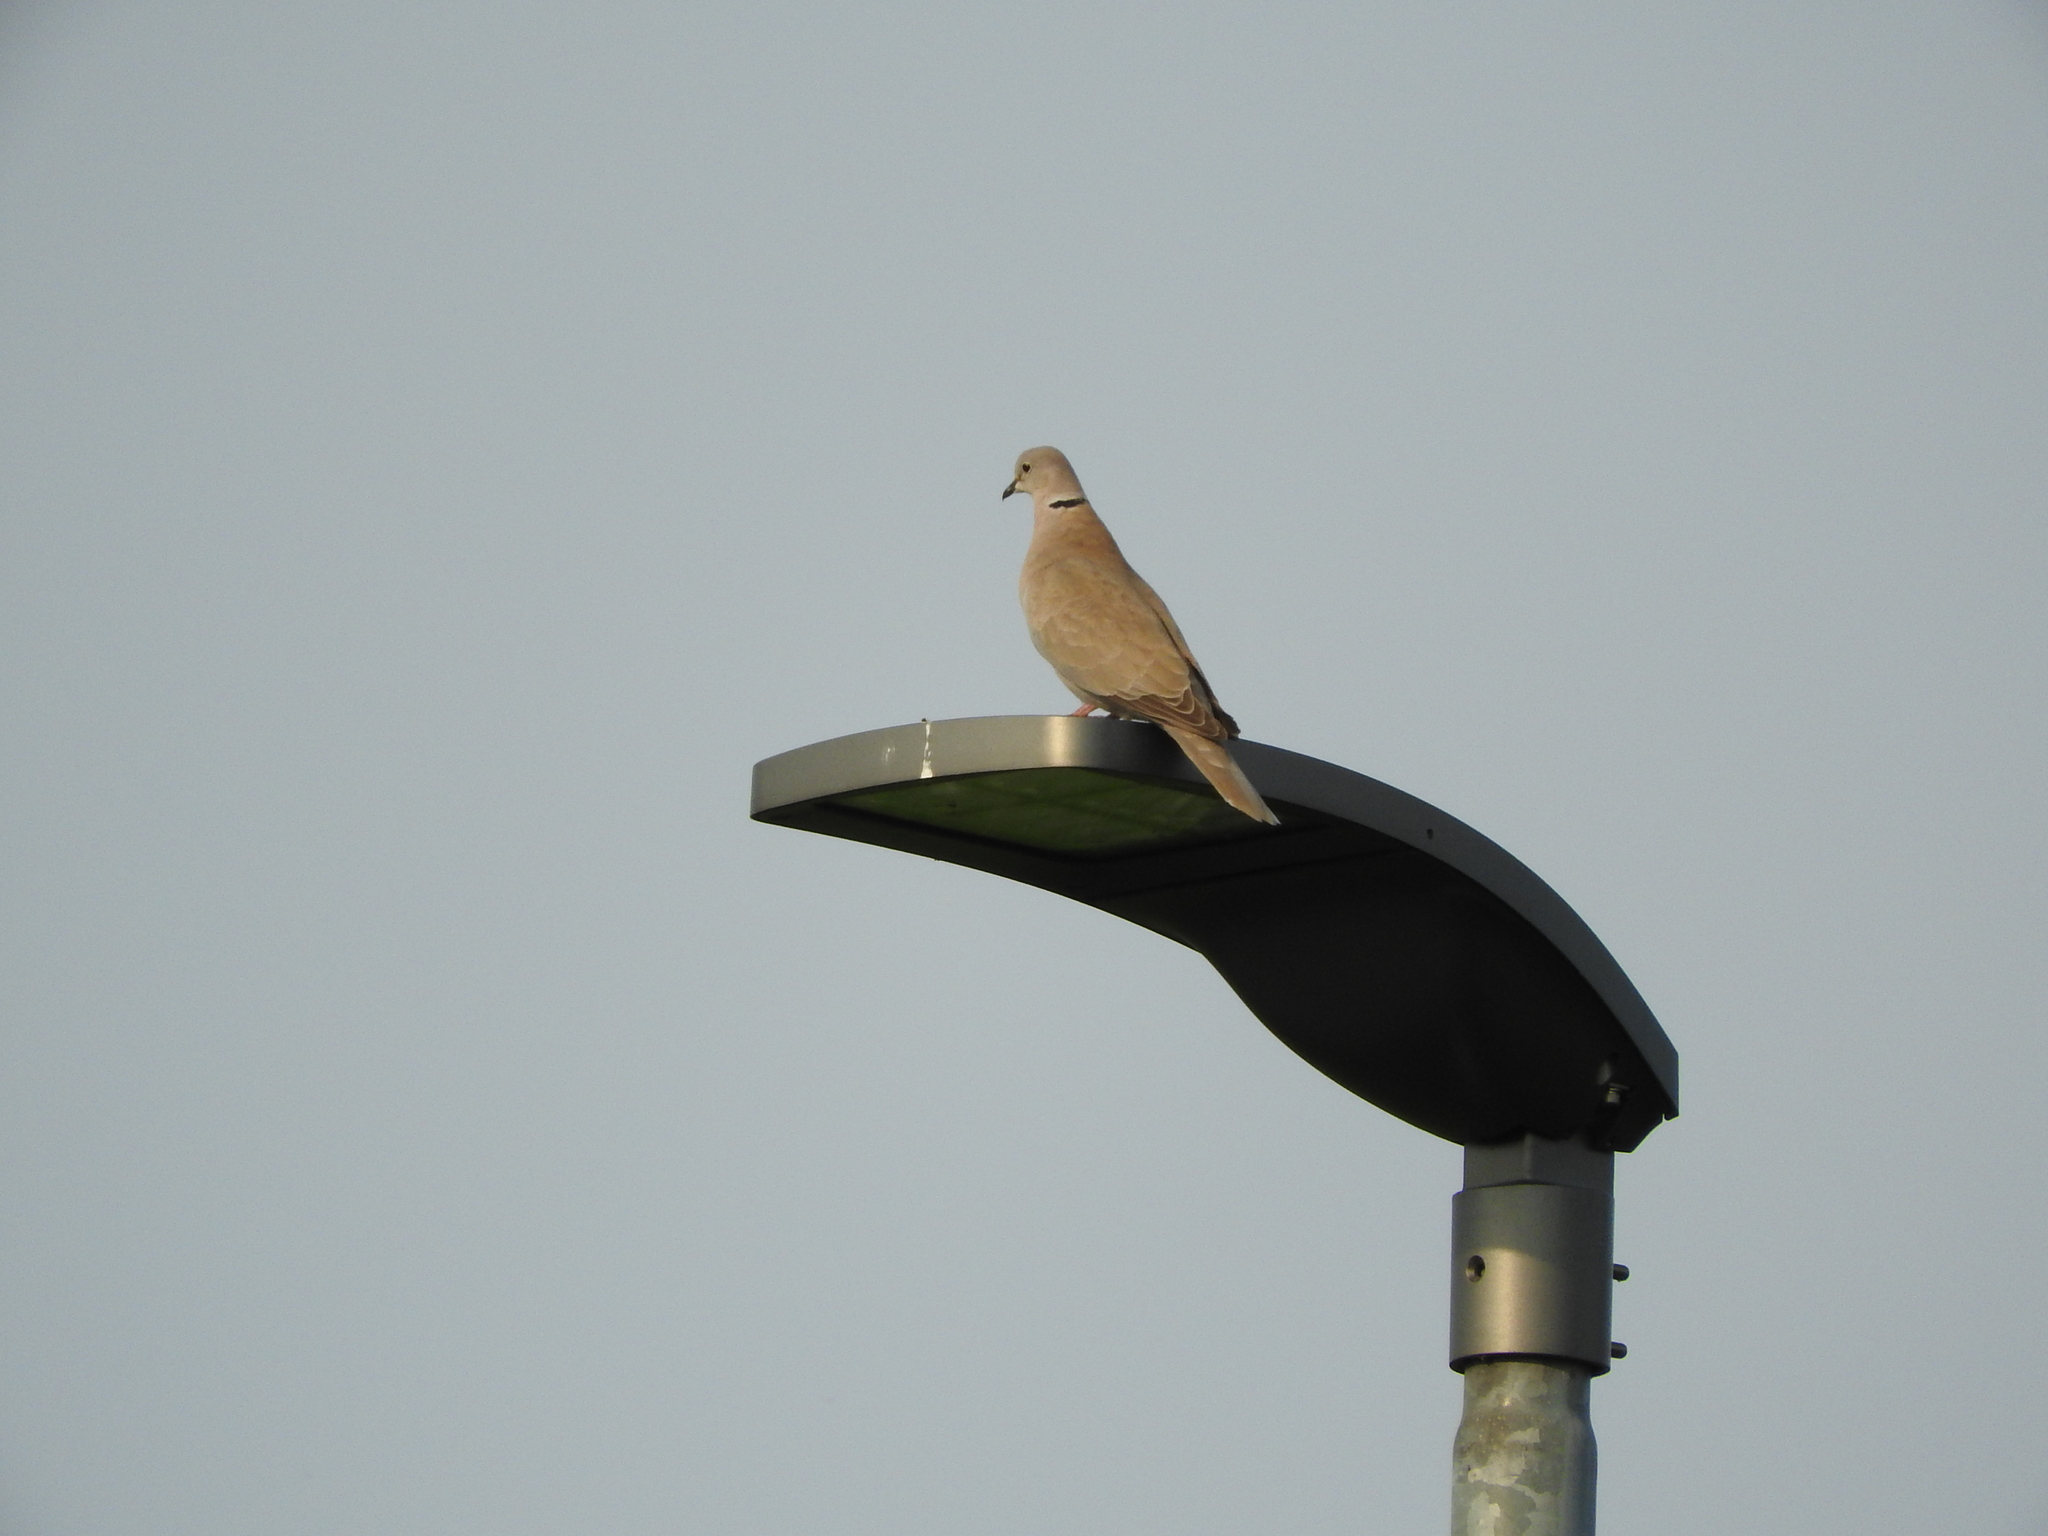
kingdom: Animalia
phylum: Chordata
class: Aves
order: Columbiformes
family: Columbidae
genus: Streptopelia
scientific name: Streptopelia decaocto
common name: Eurasian collared dove
